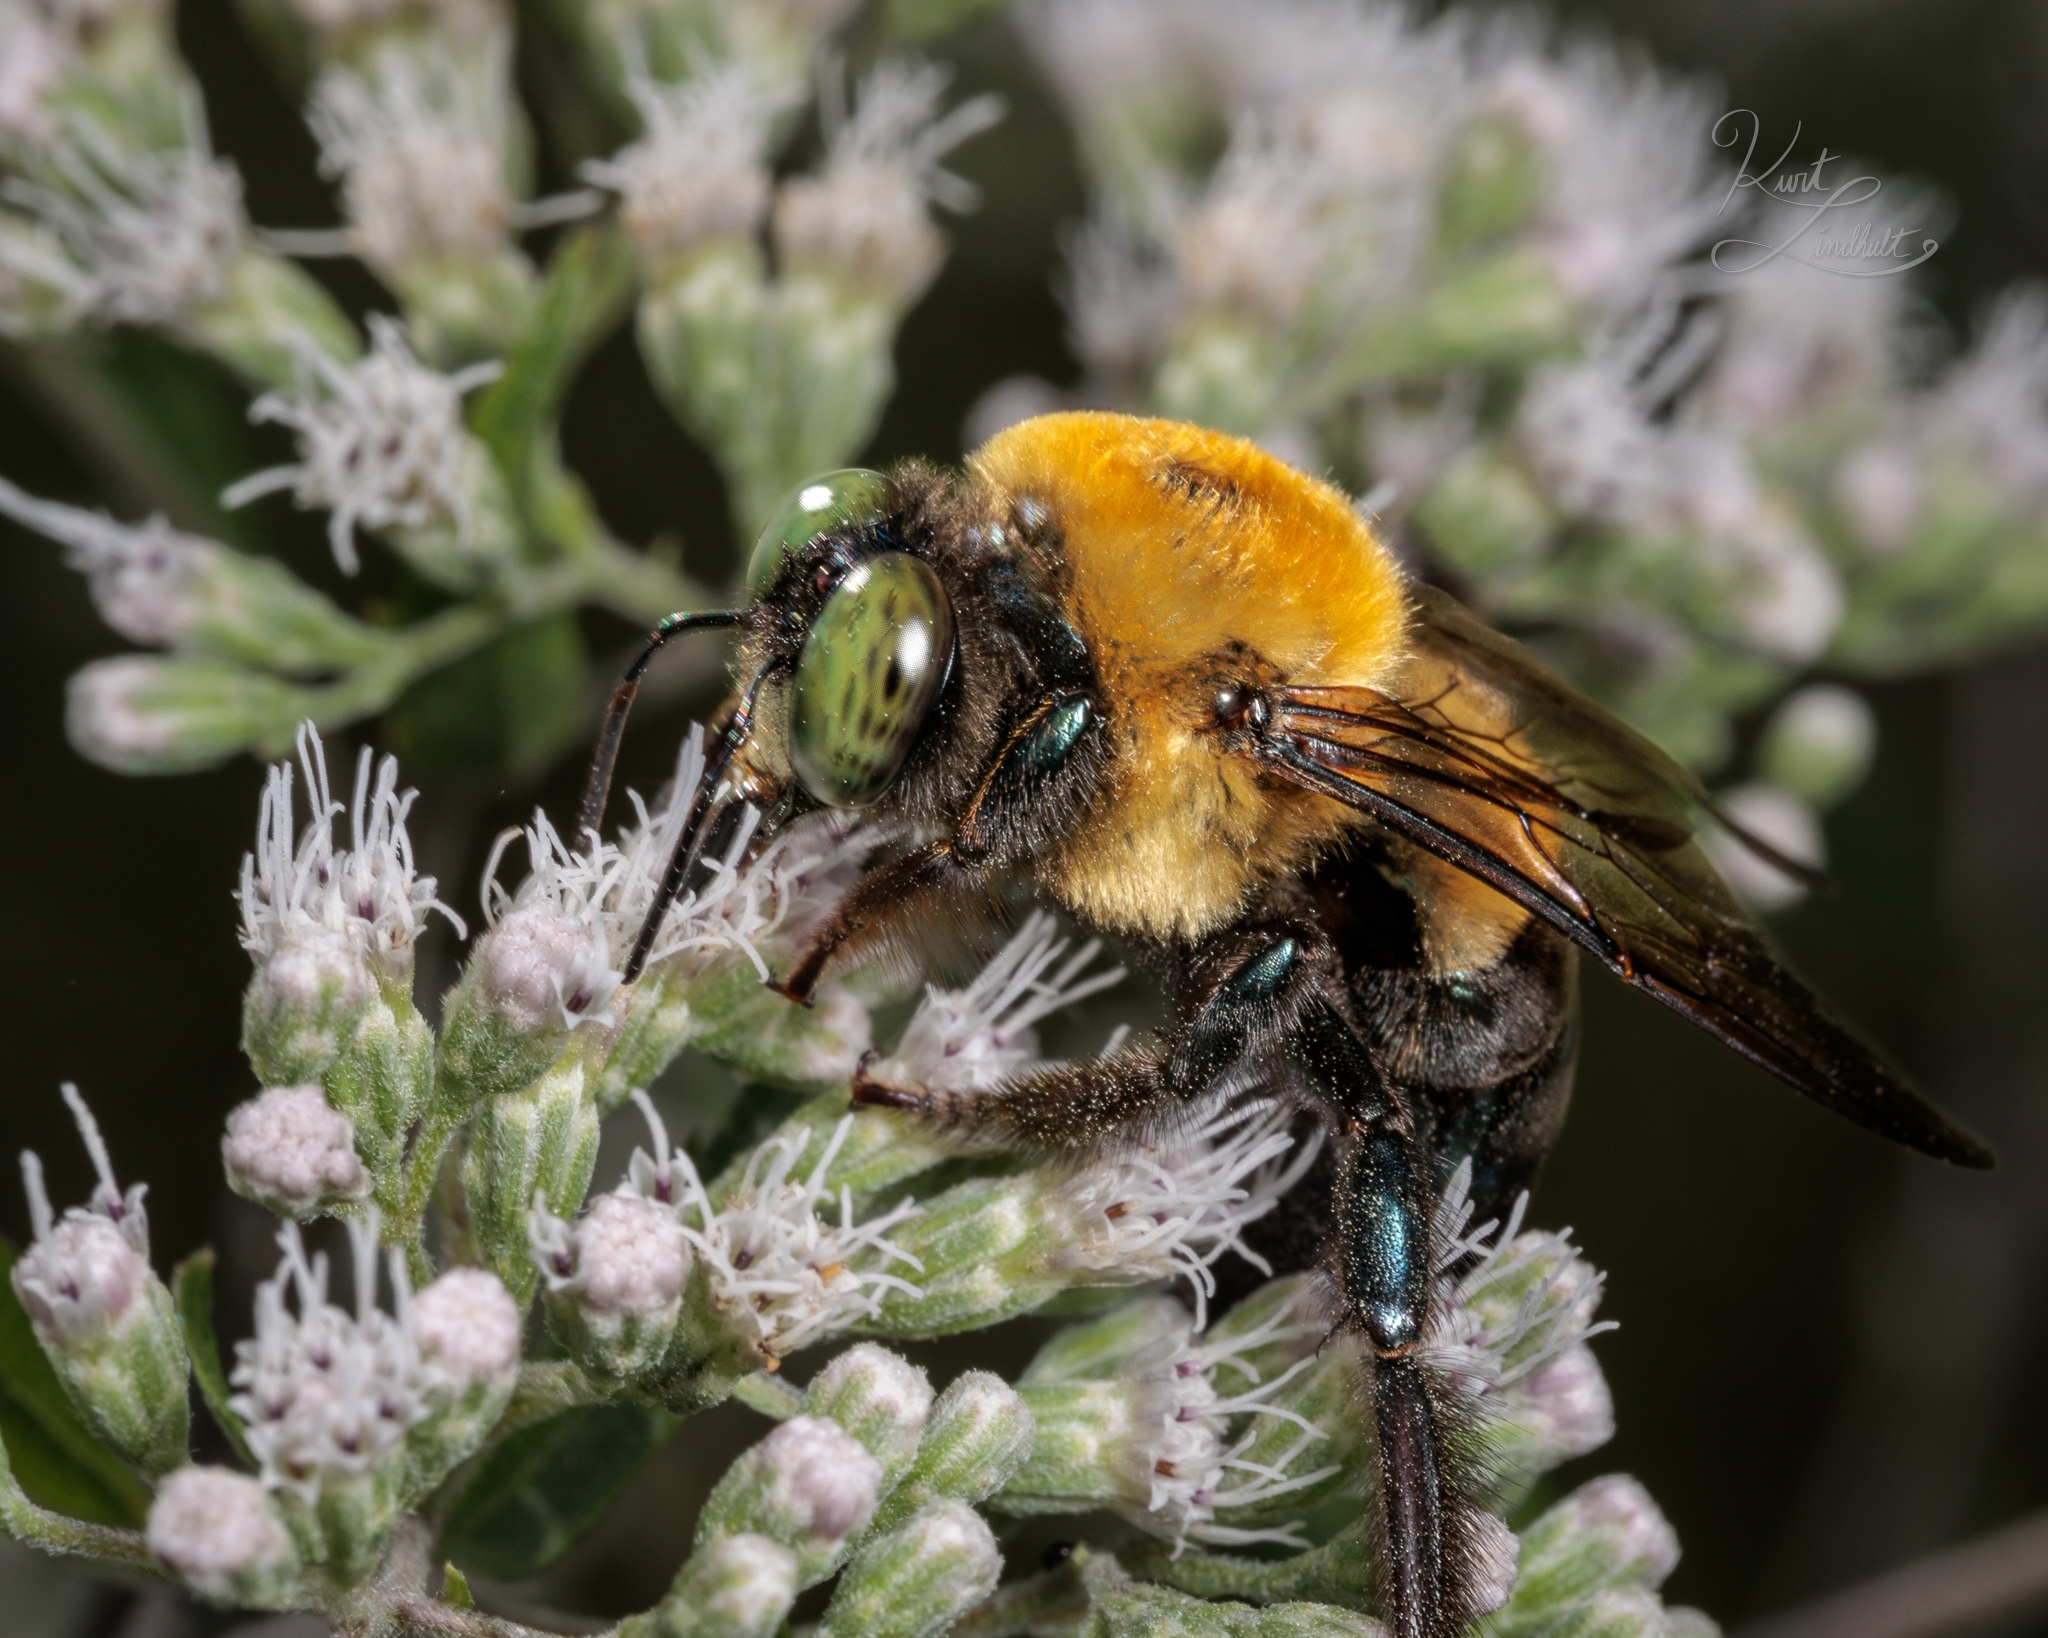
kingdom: Animalia
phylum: Arthropoda
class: Insecta
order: Hymenoptera
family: Apidae
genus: Xylocopa
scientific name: Xylocopa virginica
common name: Carpenter bee
